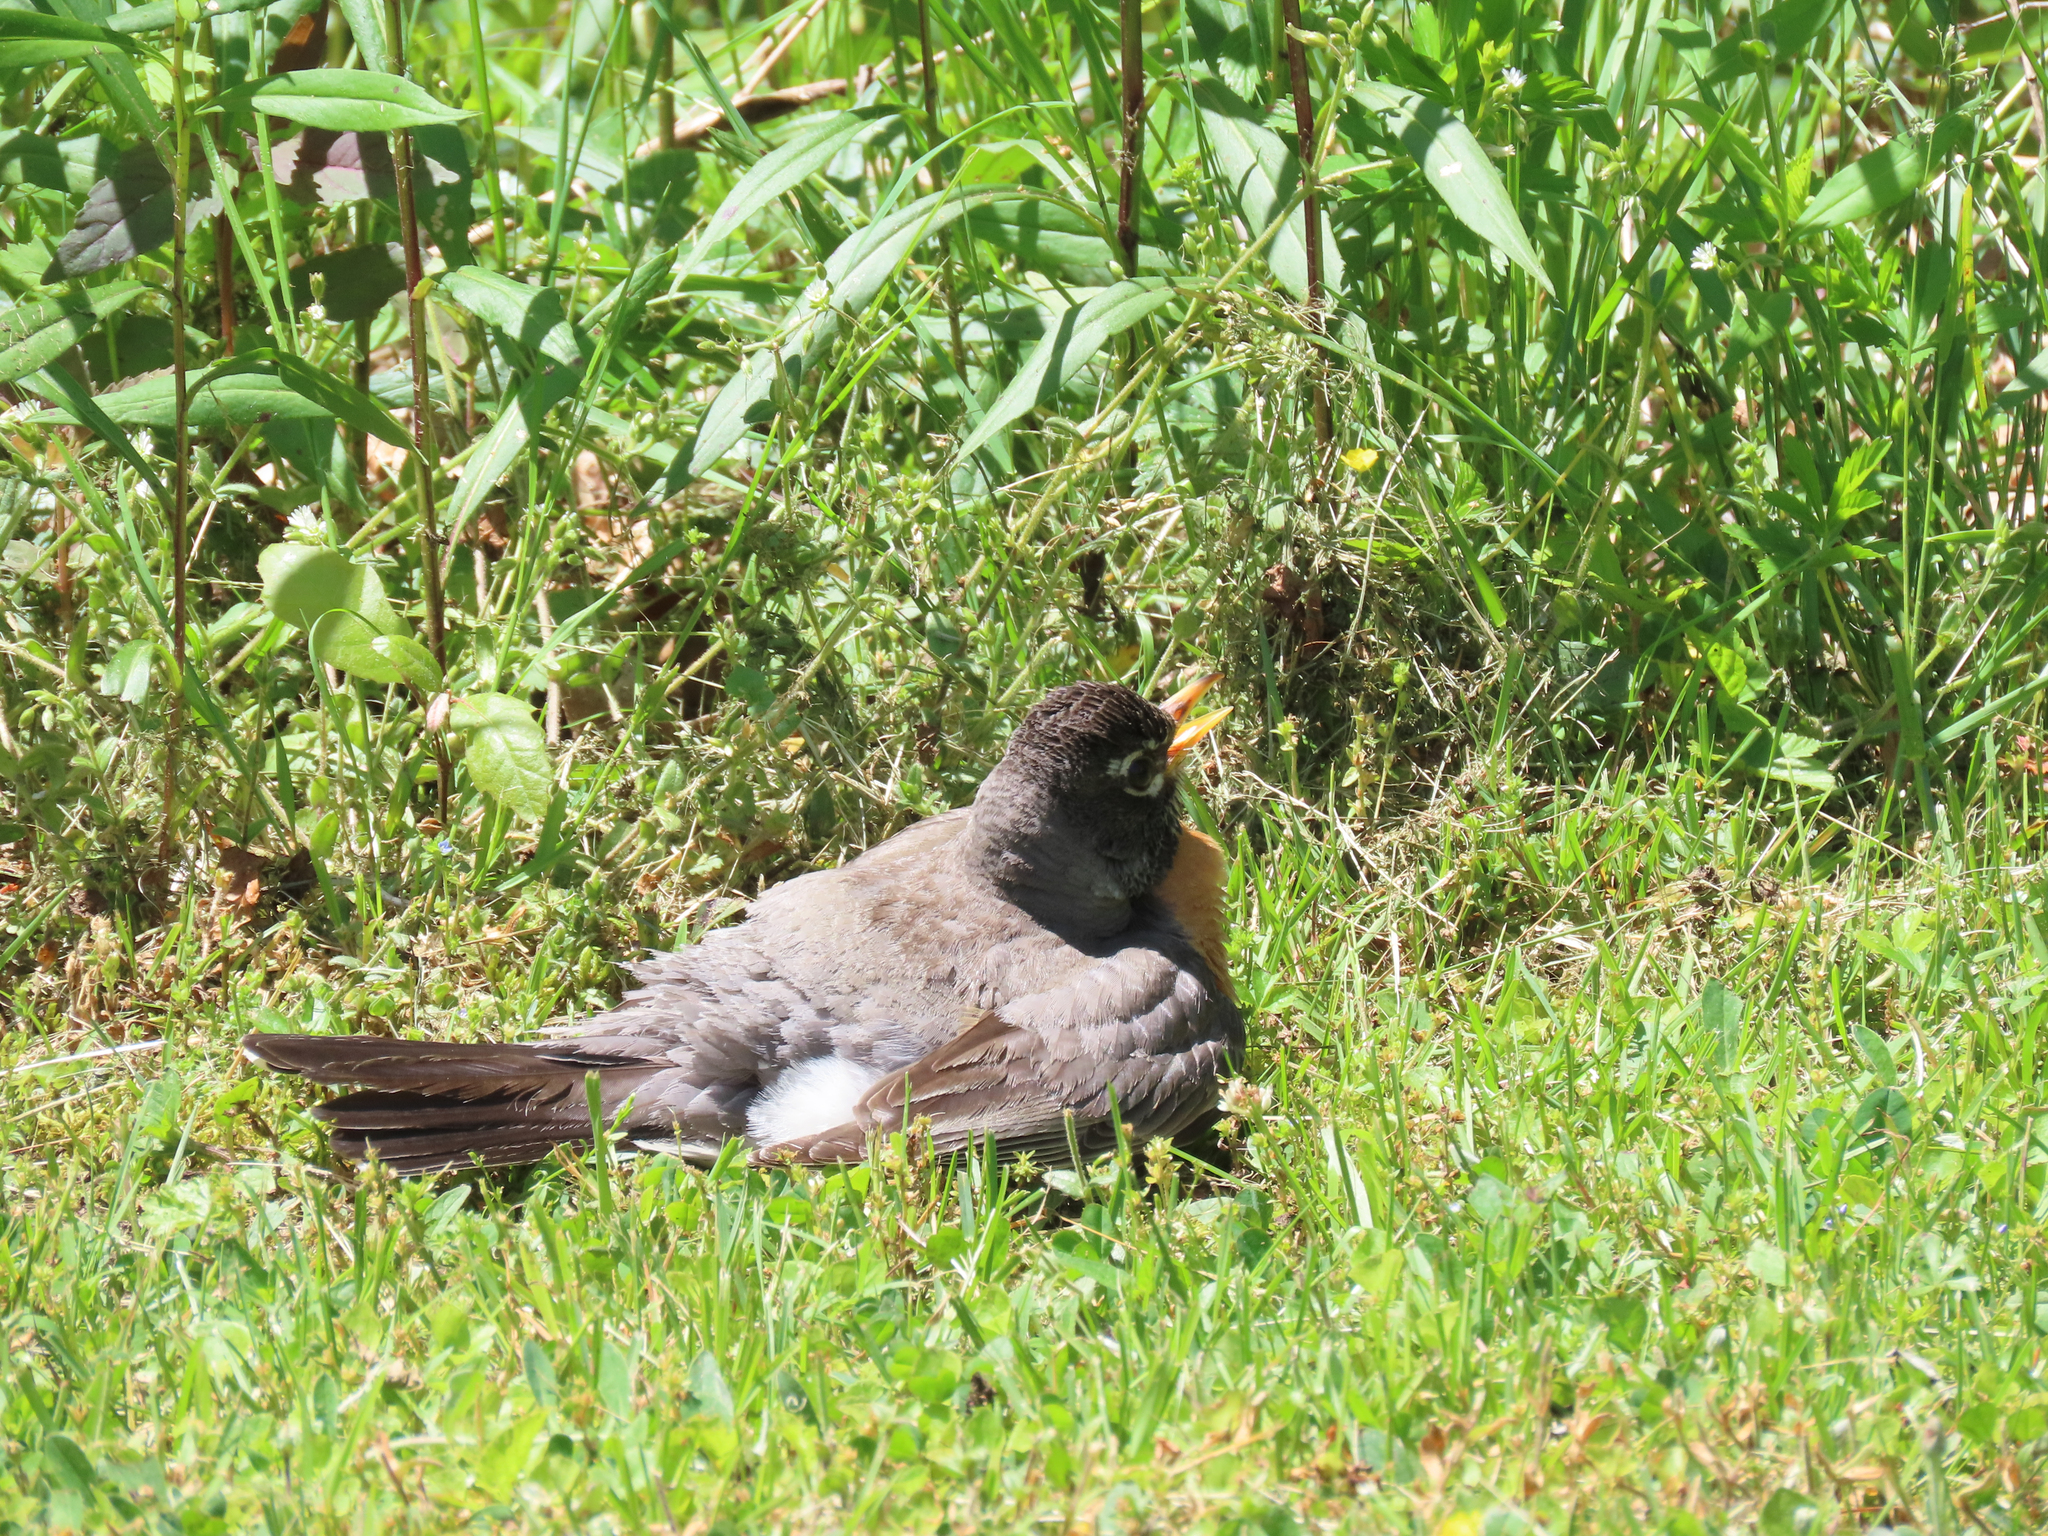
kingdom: Animalia
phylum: Chordata
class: Aves
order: Passeriformes
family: Turdidae
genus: Turdus
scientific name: Turdus migratorius
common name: American robin
